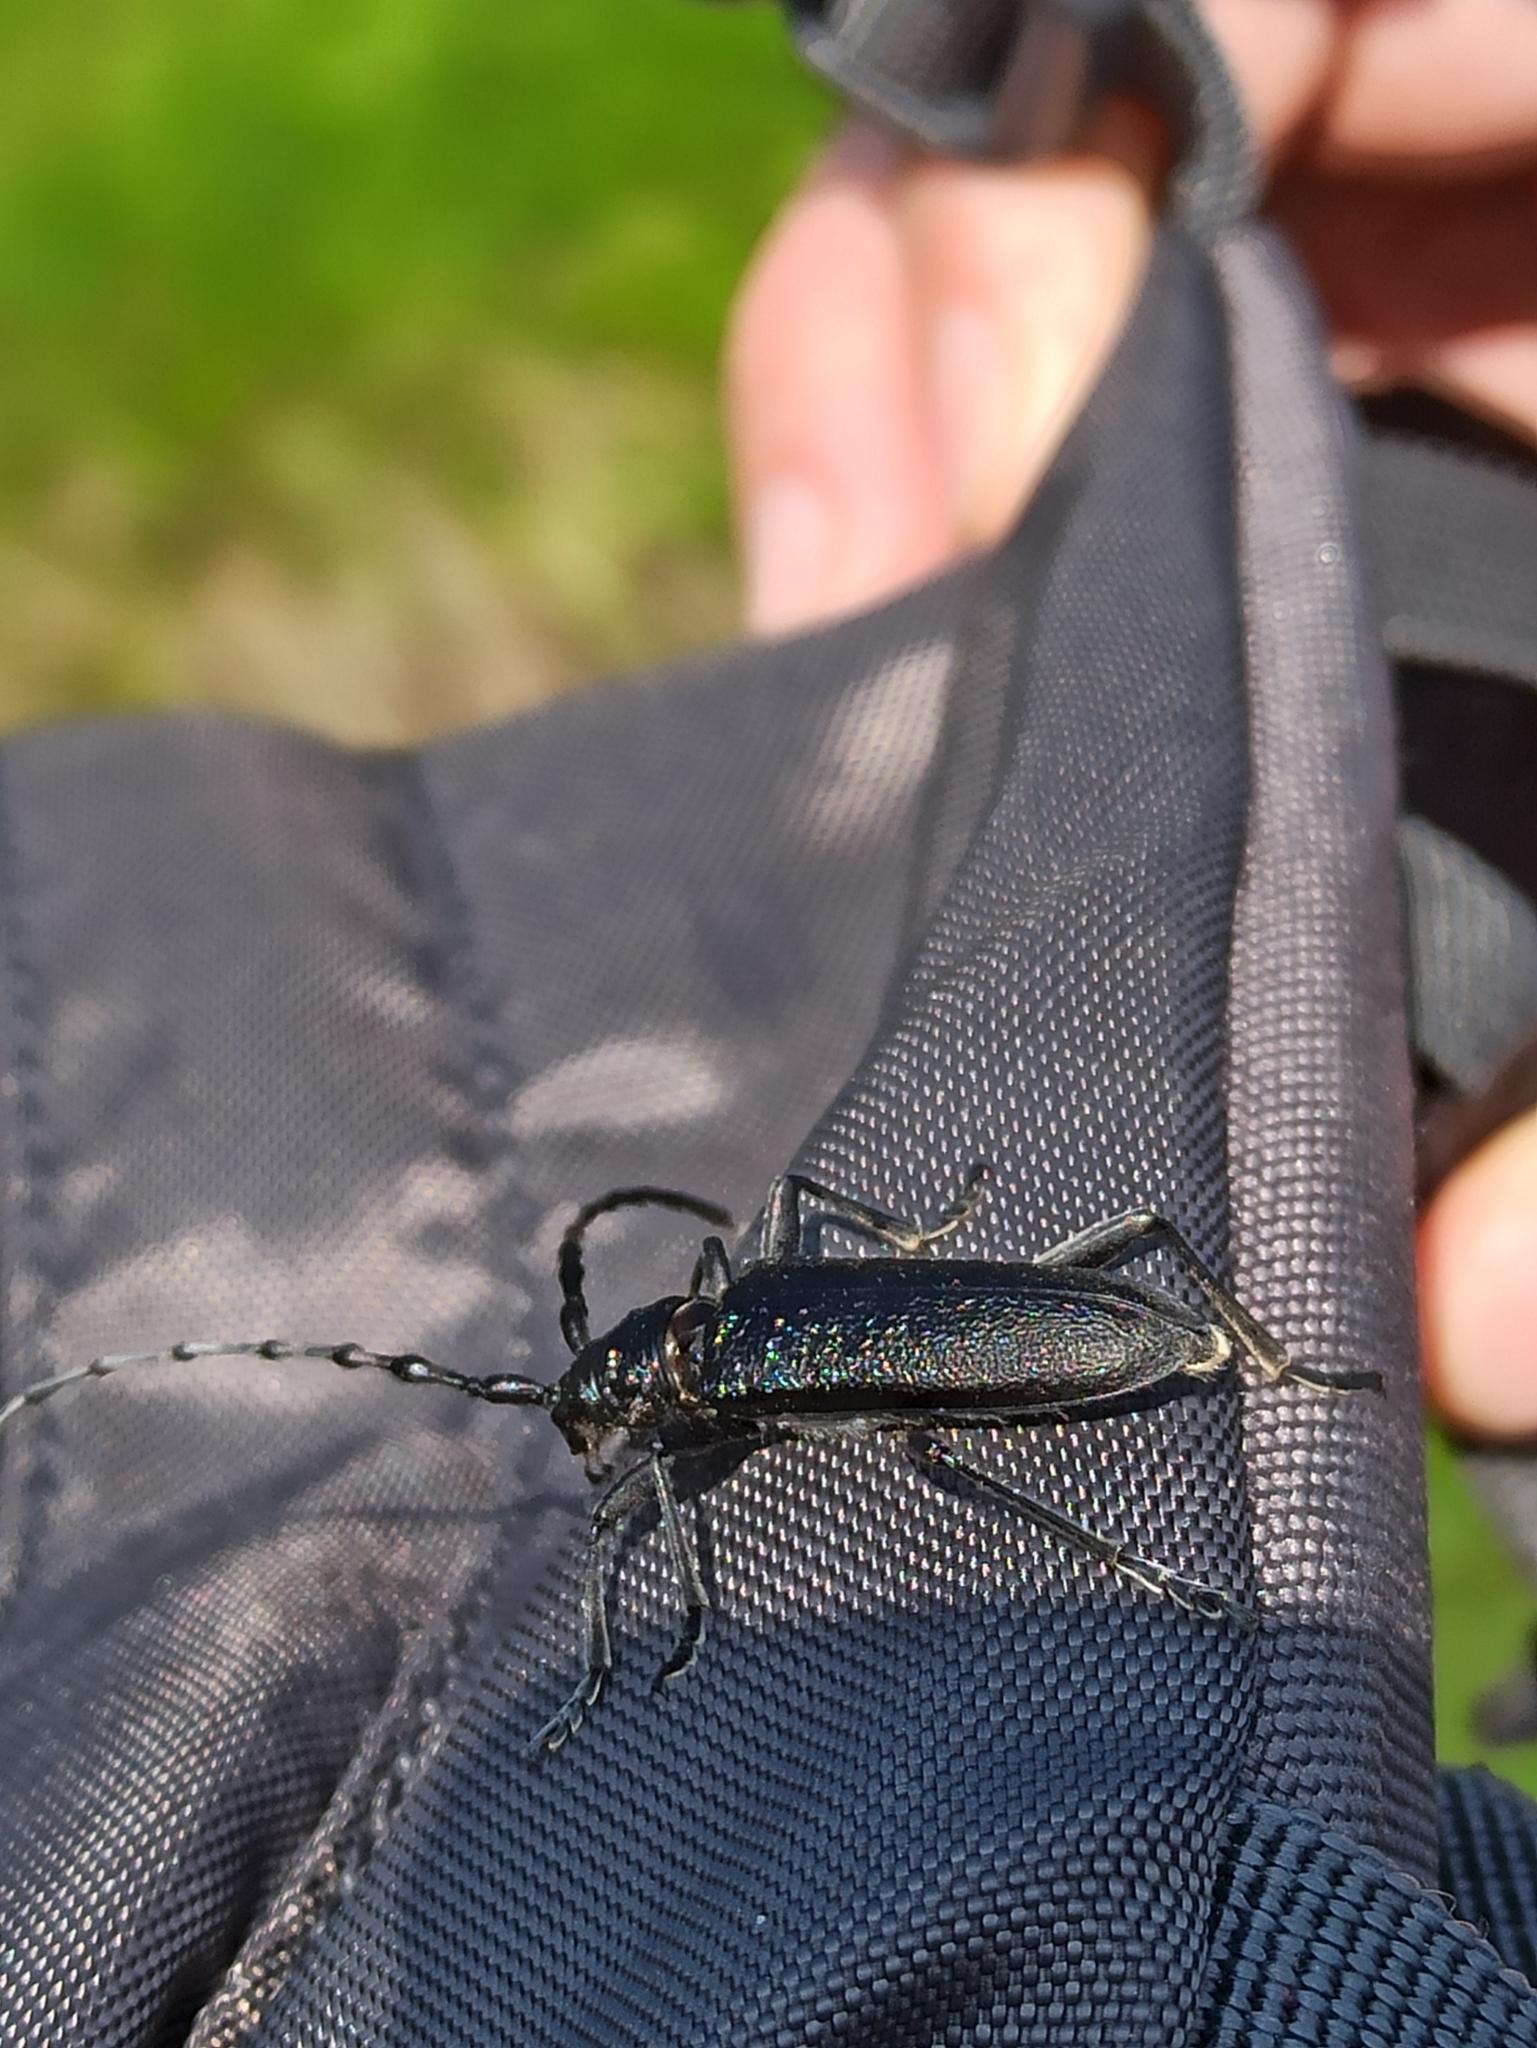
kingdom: Animalia
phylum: Arthropoda
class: Insecta
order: Coleoptera
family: Cerambycidae
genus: Cerambyx
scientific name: Cerambyx scopolii
